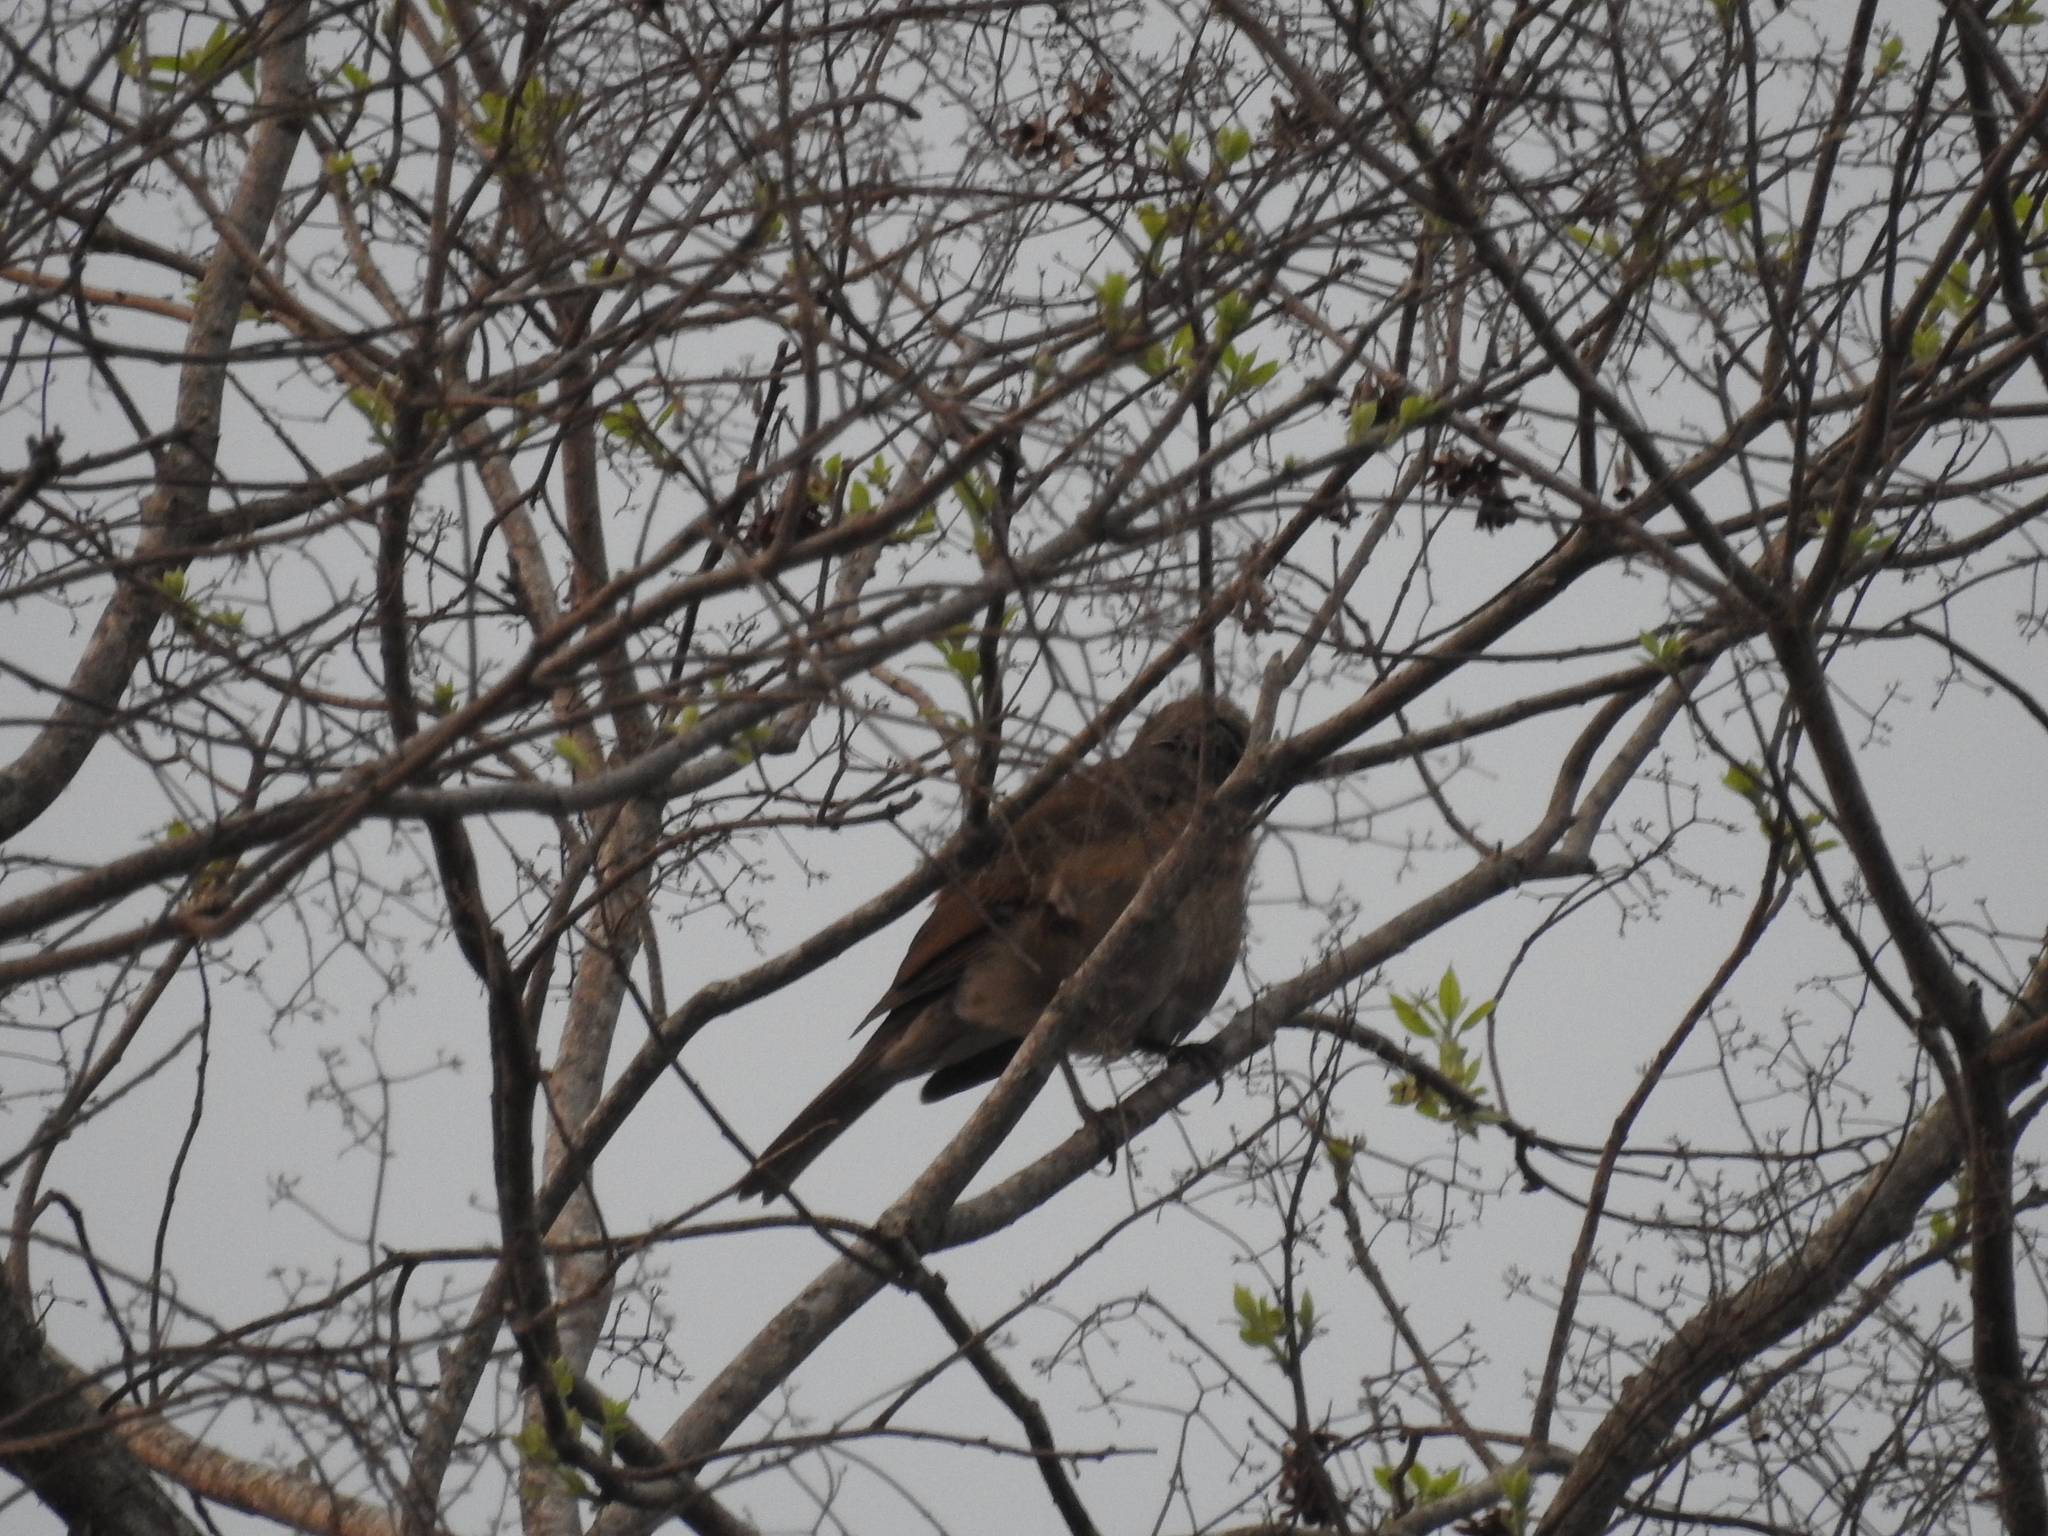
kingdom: Animalia
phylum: Chordata
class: Aves
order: Passeriformes
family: Turdidae
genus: Turdus
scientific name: Turdus leucomelas
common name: Pale-breasted thrush
